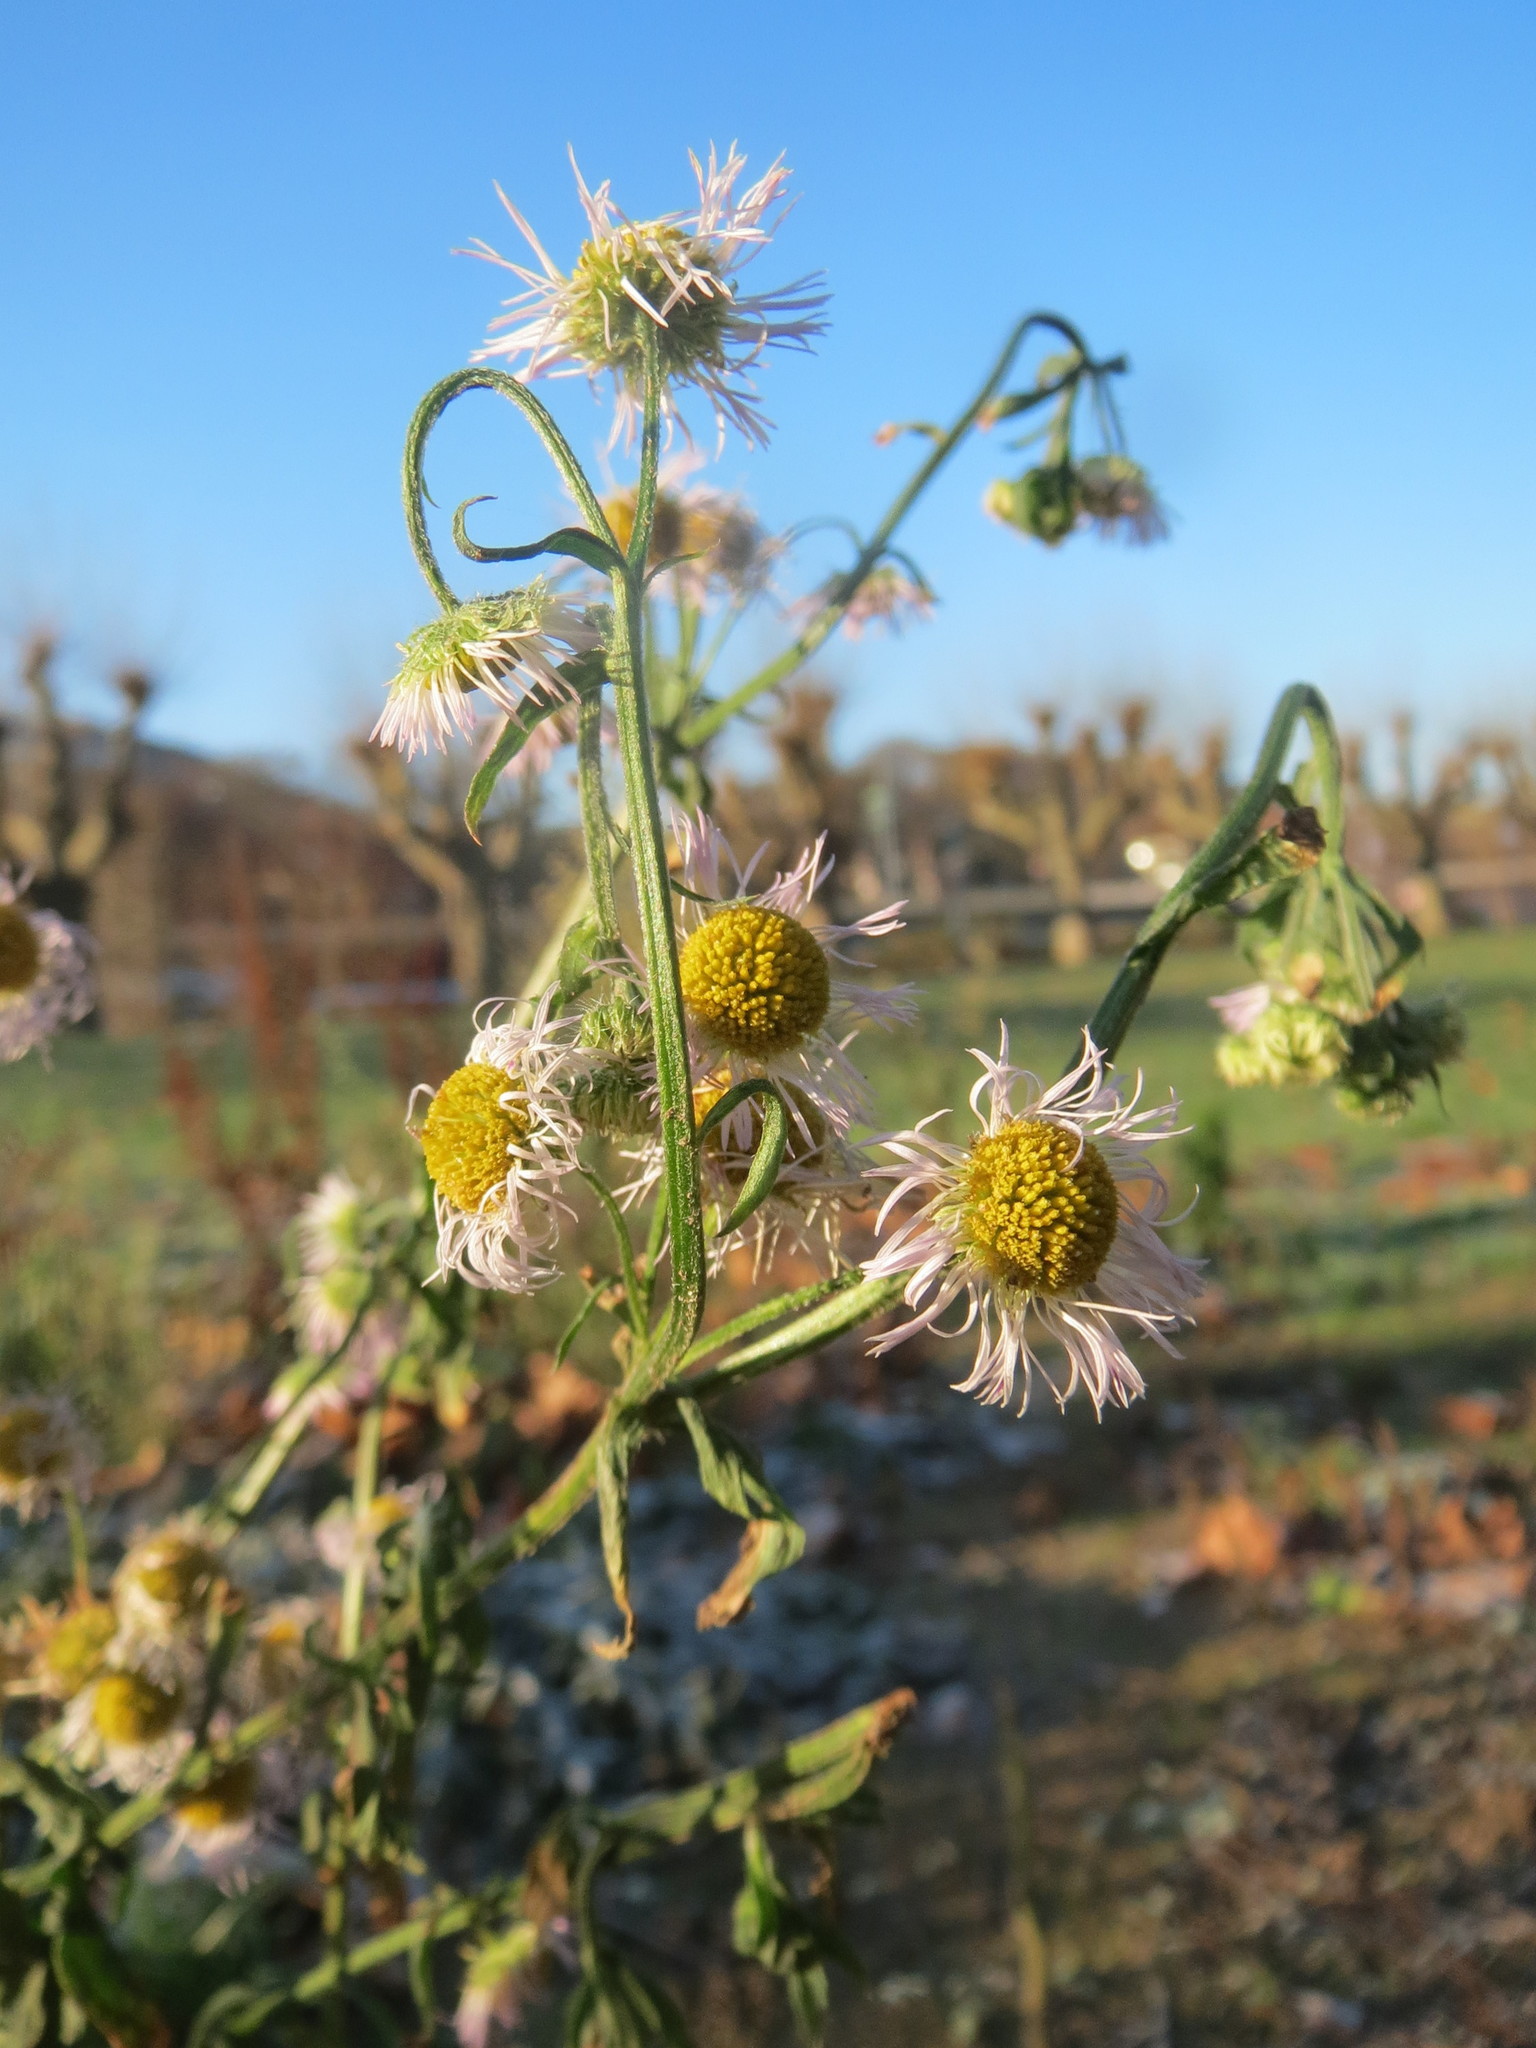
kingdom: Plantae
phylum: Tracheophyta
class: Magnoliopsida
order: Asterales
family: Asteraceae
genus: Erigeron
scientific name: Erigeron annuus
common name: Tall fleabane
